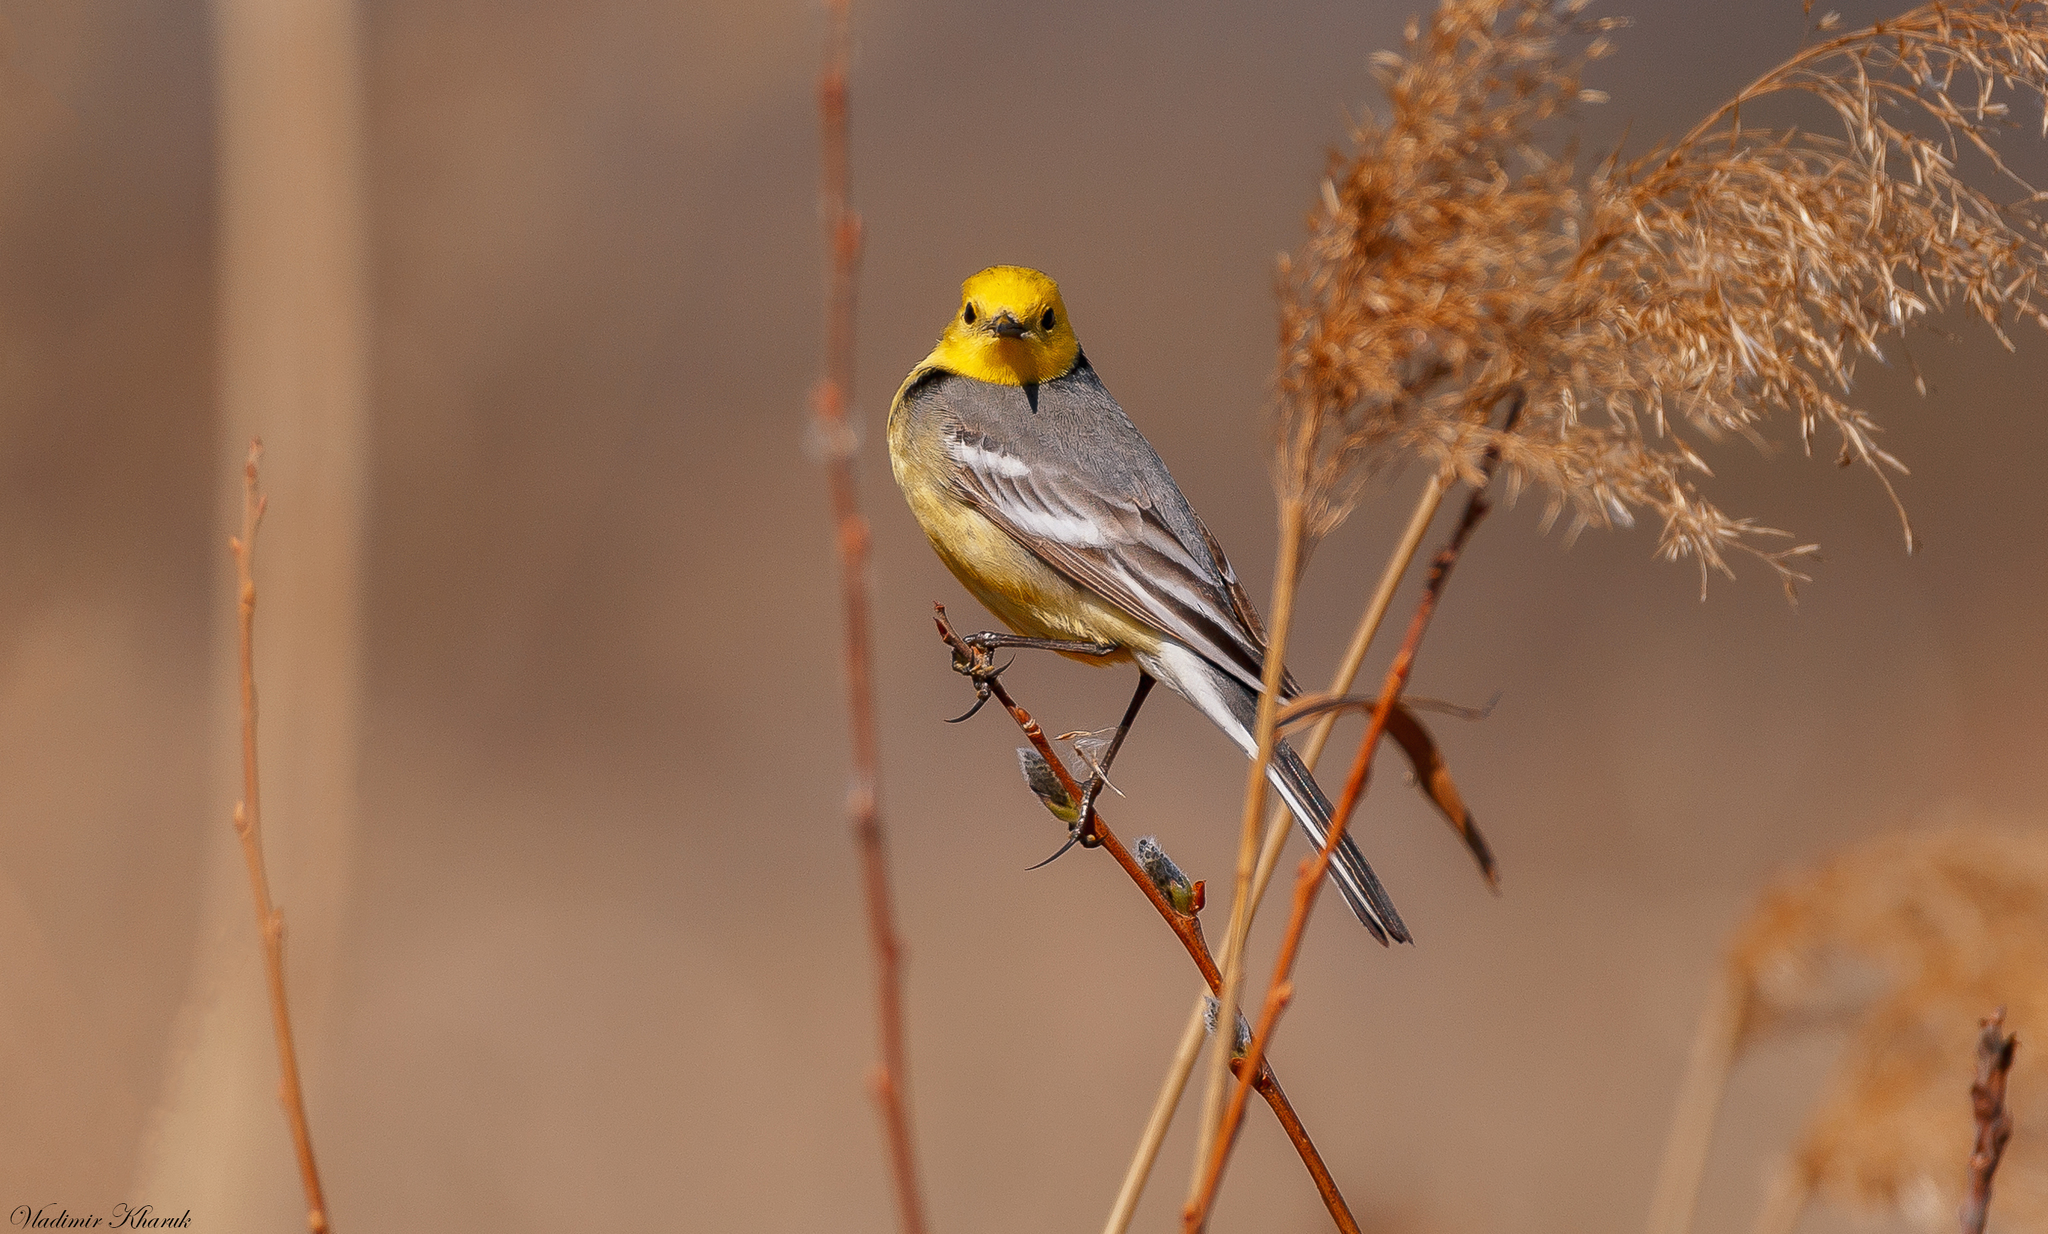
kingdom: Animalia
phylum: Chordata
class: Aves
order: Passeriformes
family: Motacillidae
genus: Motacilla
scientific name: Motacilla citreola
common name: Citrine wagtail
